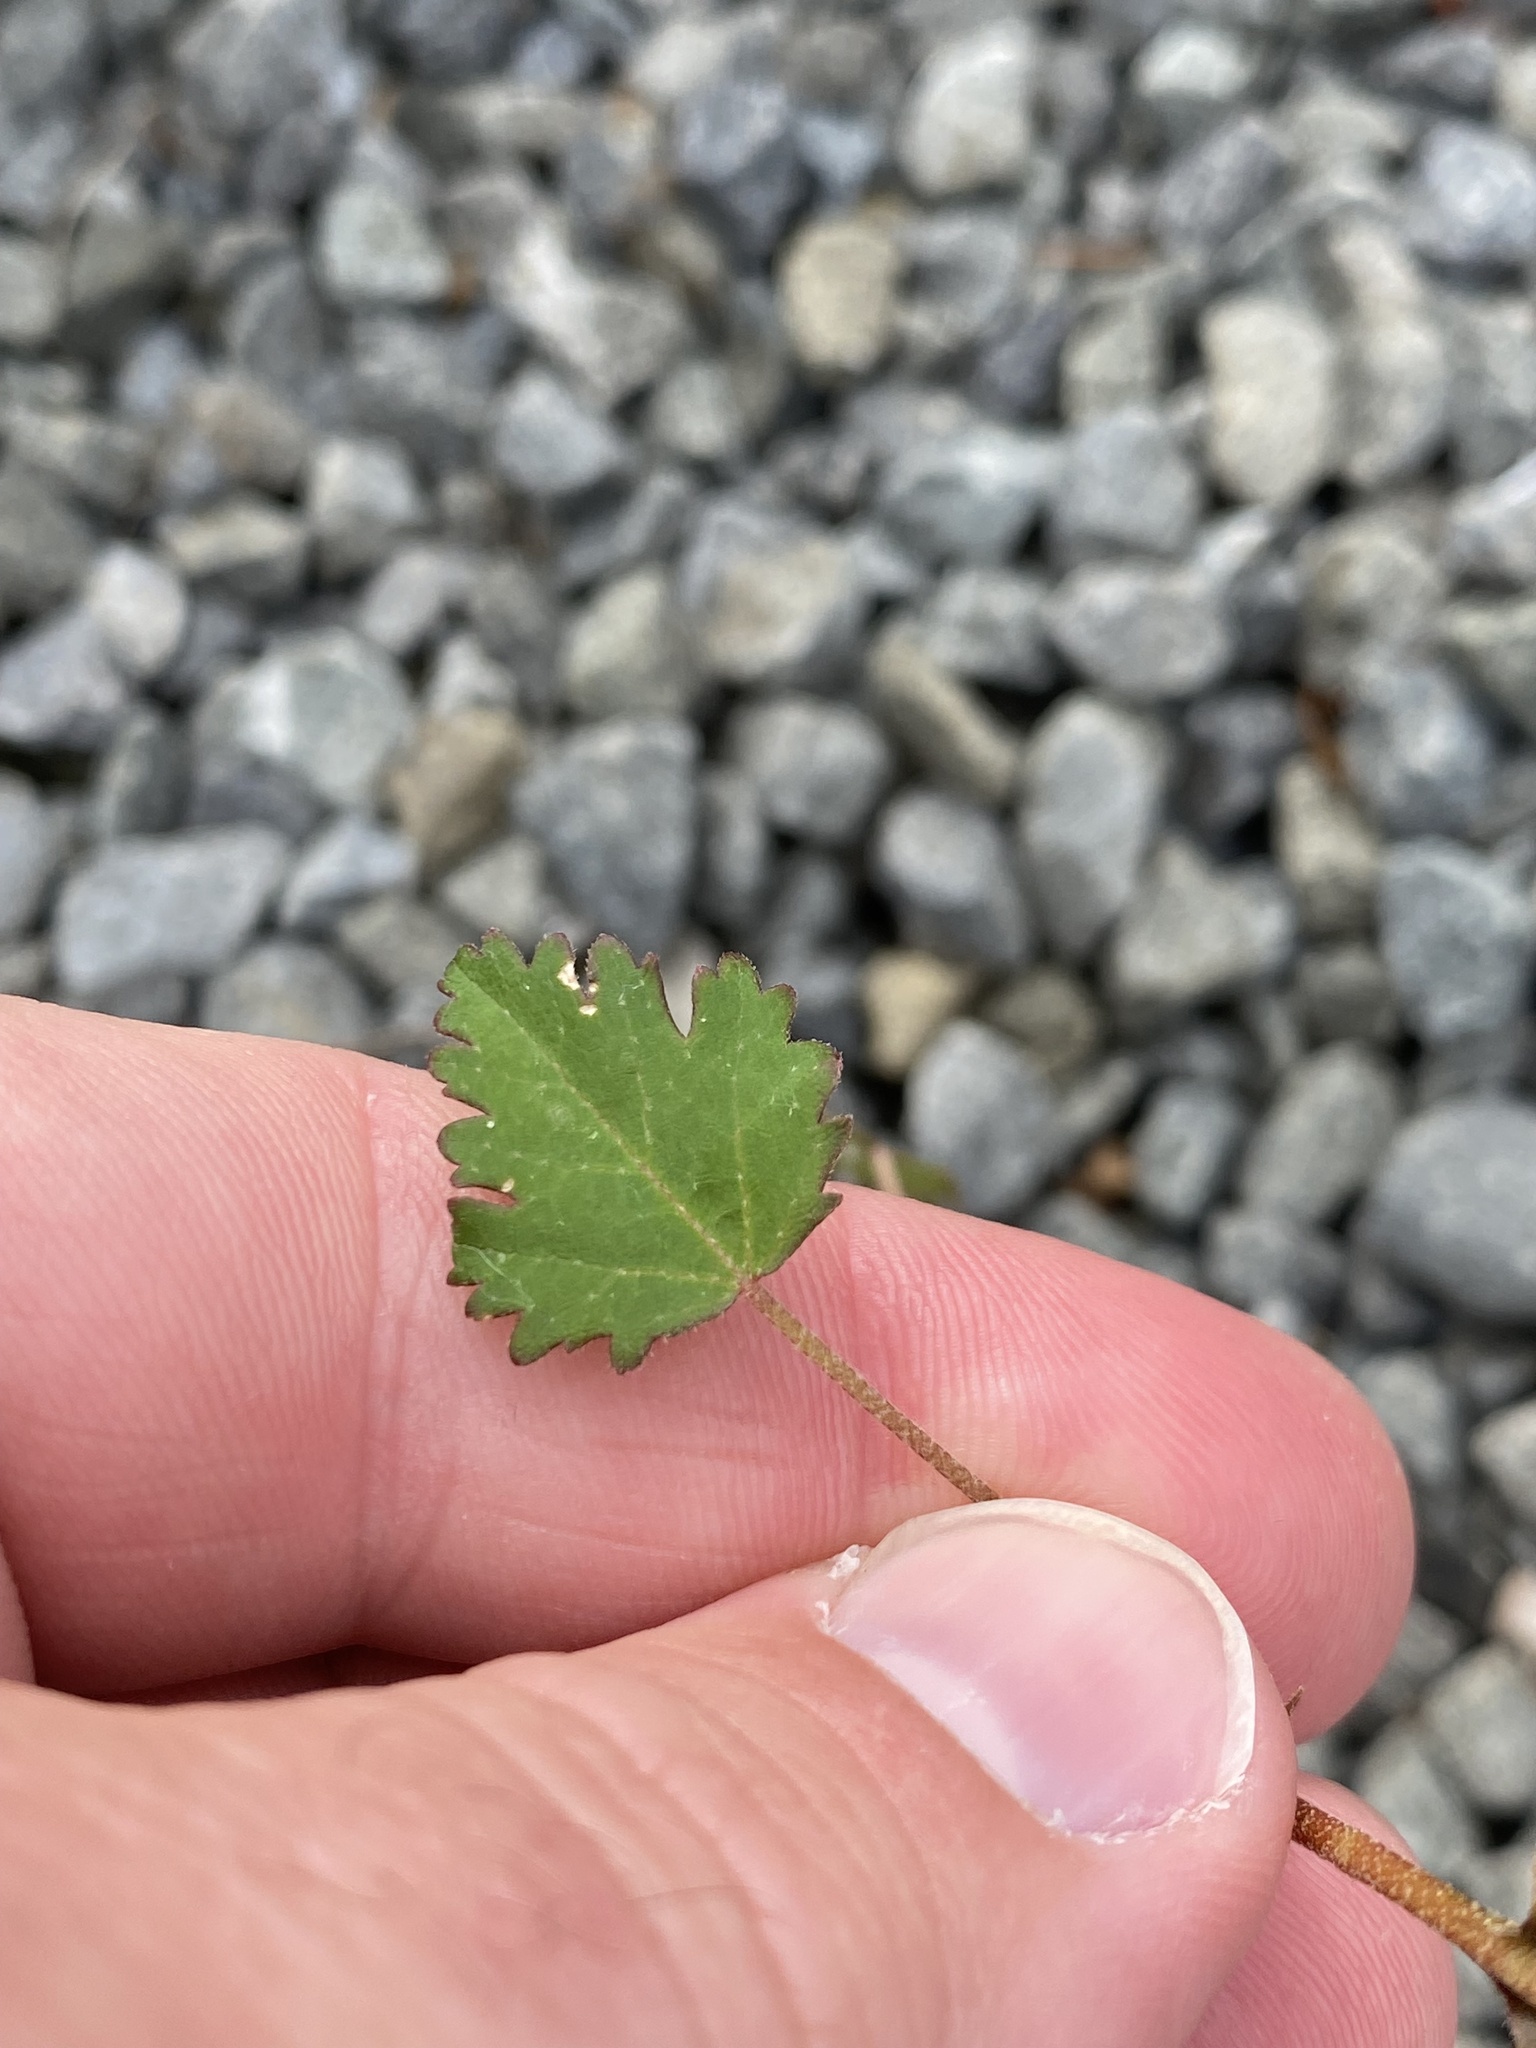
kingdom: Plantae
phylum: Tracheophyta
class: Magnoliopsida
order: Malvales
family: Malvaceae
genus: Plagianthus
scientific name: Plagianthus regius
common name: Manatu
